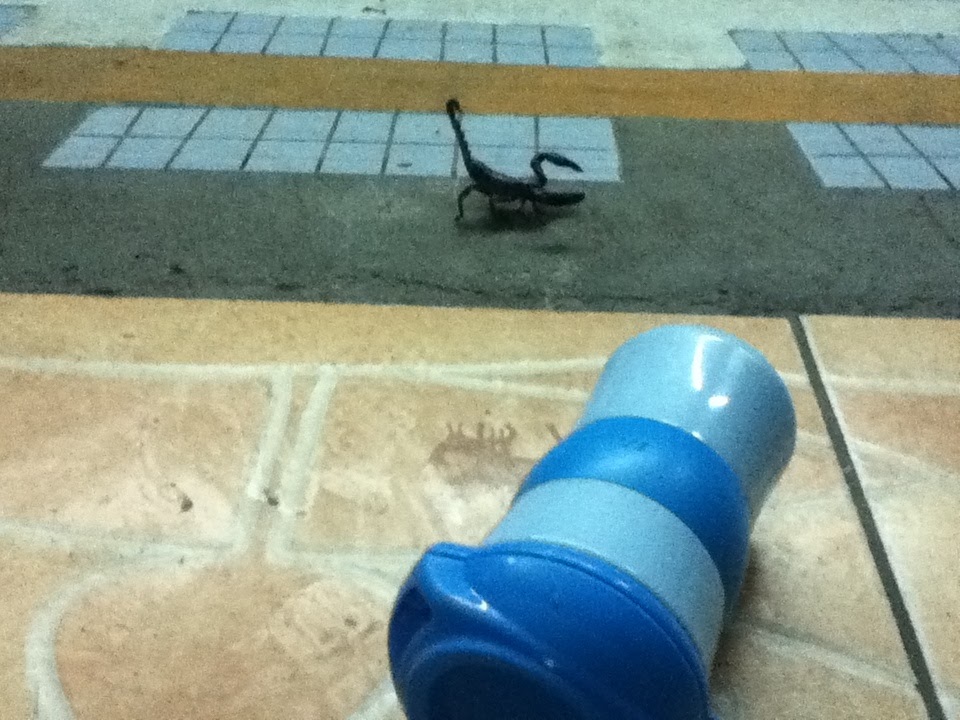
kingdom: Animalia
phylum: Arthropoda
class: Arachnida
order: Scorpiones
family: Scorpionidae
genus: Heterometrus
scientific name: Heterometrus laoticus
